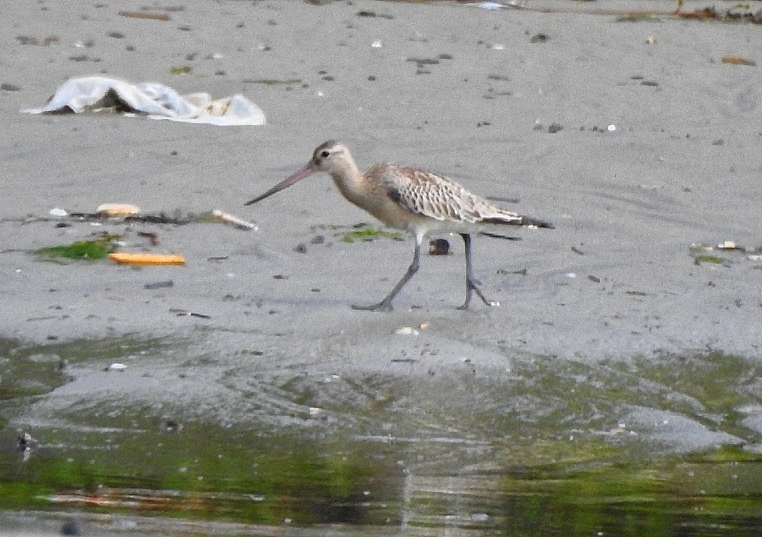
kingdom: Animalia
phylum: Chordata
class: Aves
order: Charadriiformes
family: Scolopacidae
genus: Limosa
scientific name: Limosa lapponica
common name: Bar-tailed godwit
